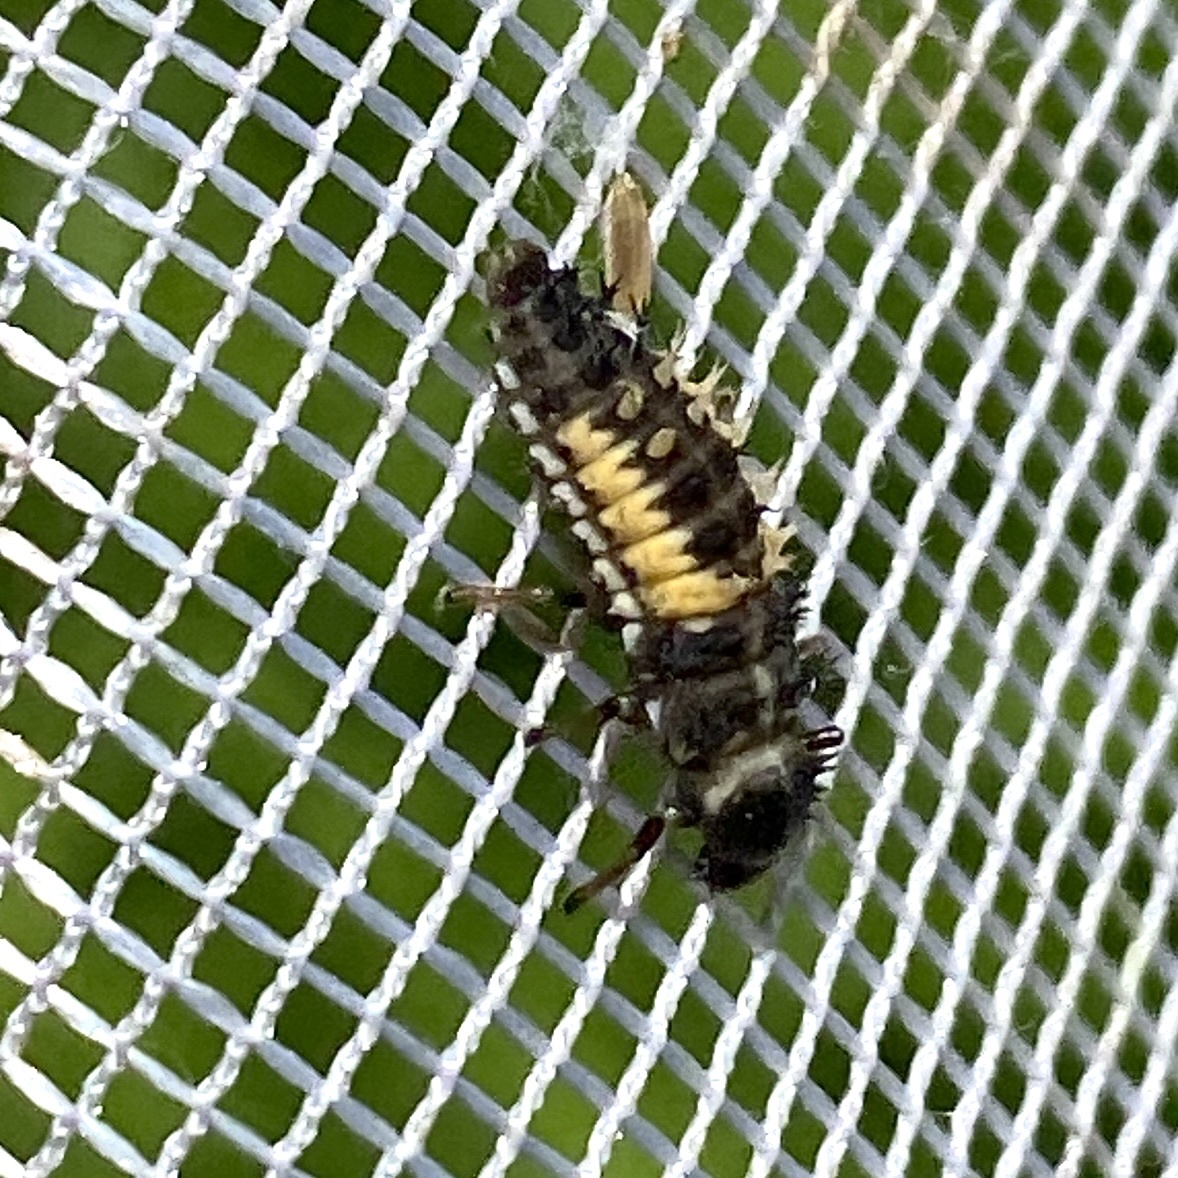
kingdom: Animalia
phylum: Arthropoda
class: Insecta
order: Coleoptera
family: Coccinellidae
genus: Harmonia
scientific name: Harmonia axyridis
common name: Harlequin ladybird
